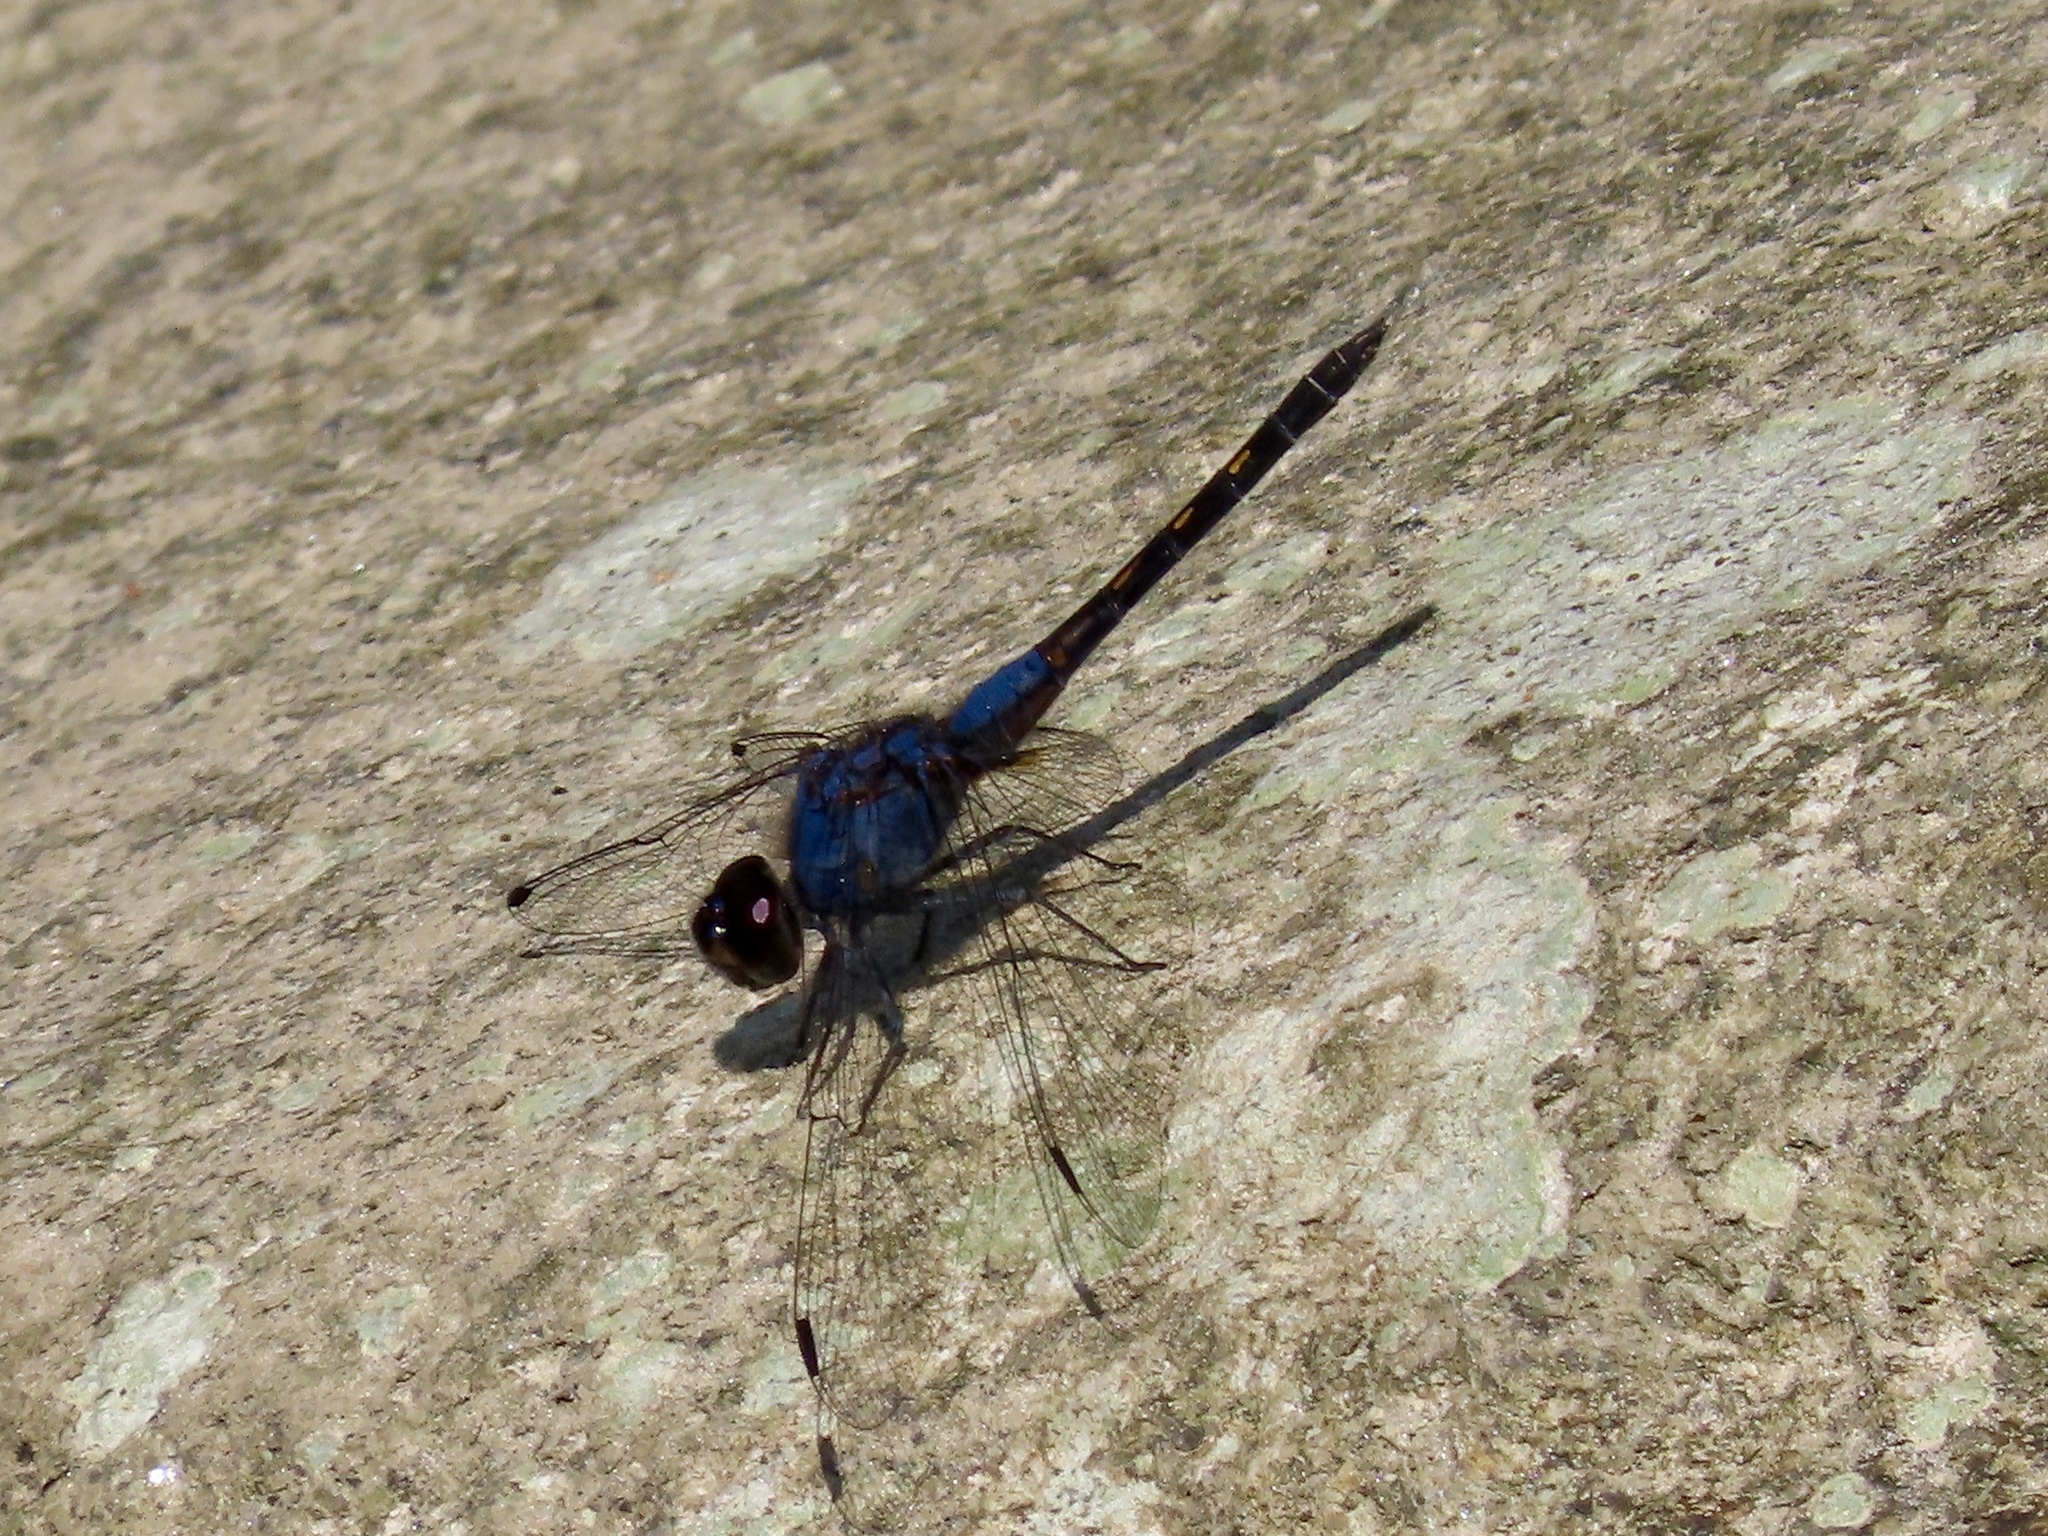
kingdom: Animalia
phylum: Arthropoda
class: Insecta
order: Odonata
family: Libellulidae
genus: Trithemis
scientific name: Trithemis festiva
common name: Indigo dropwing
